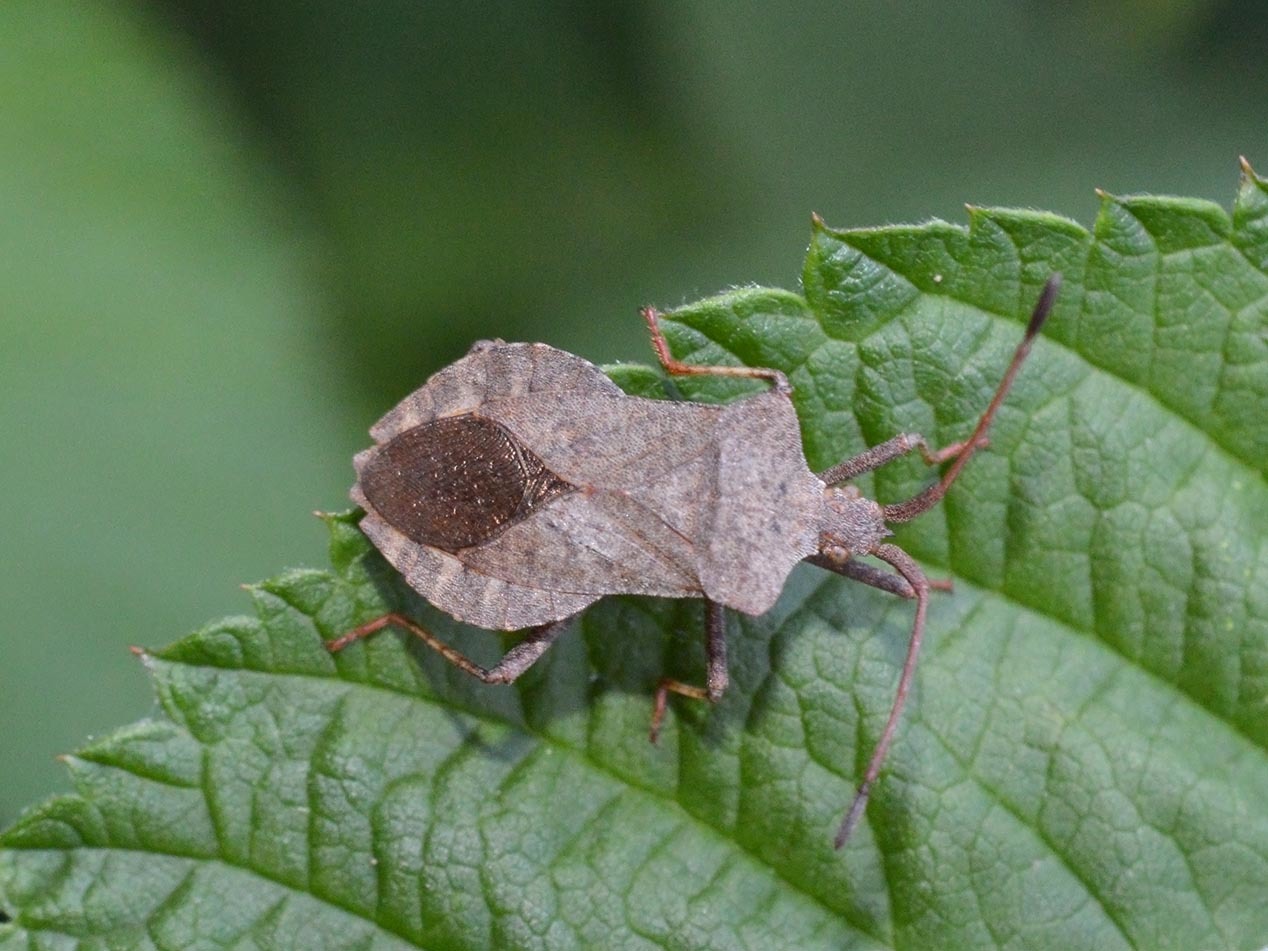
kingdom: Animalia
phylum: Arthropoda
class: Insecta
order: Hemiptera
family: Coreidae
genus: Coreus
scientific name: Coreus marginatus
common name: Dock bug
